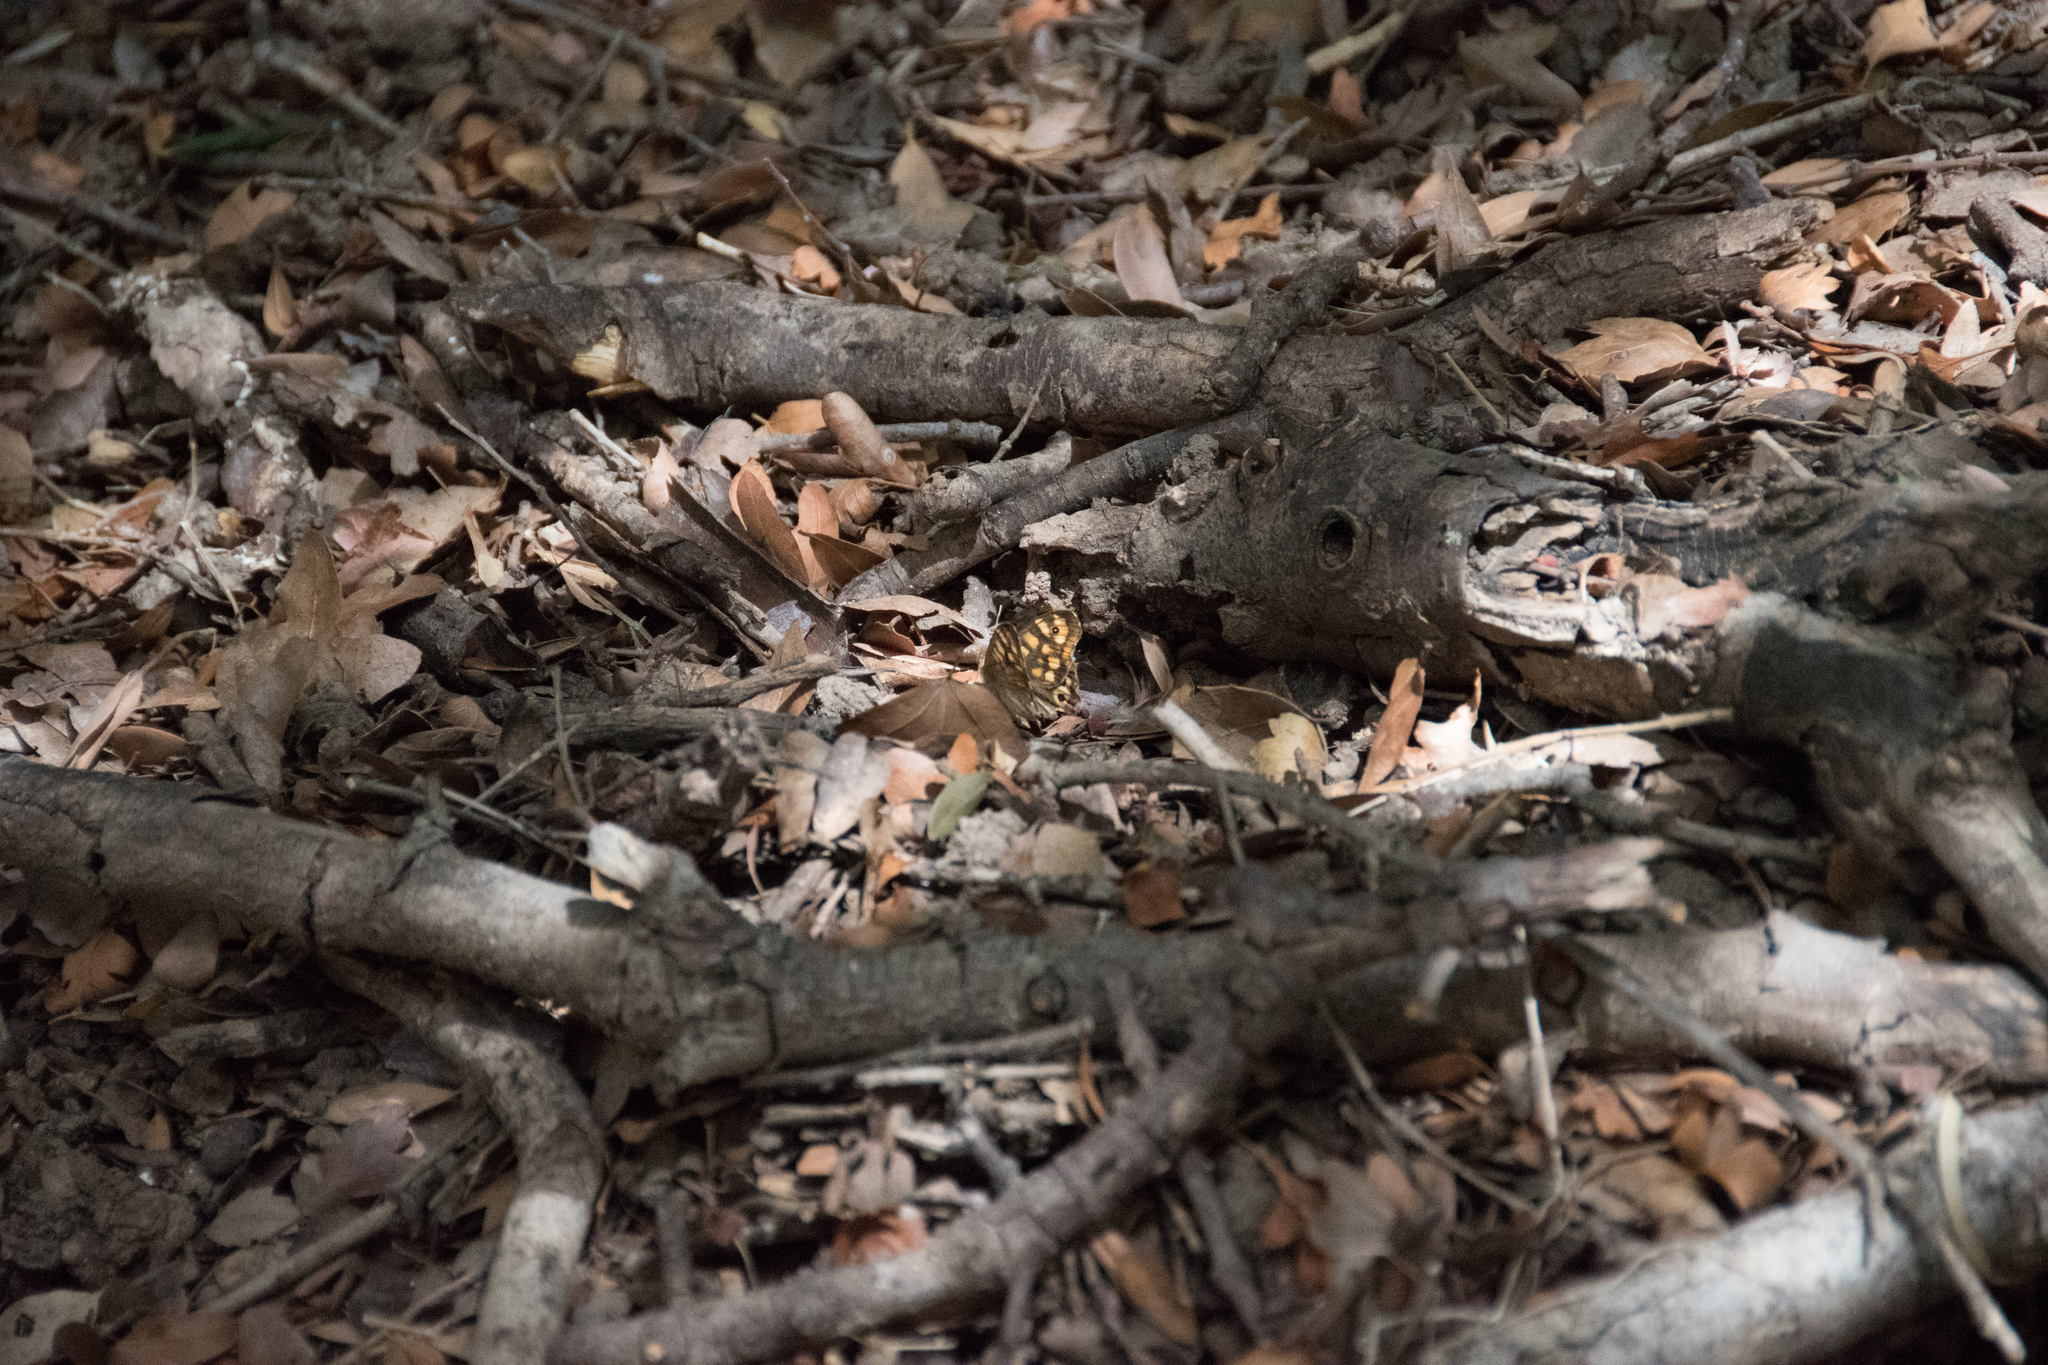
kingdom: Animalia
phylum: Arthropoda
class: Insecta
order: Lepidoptera
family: Nymphalidae
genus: Pararge
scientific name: Pararge aegeria
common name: Speckled wood
